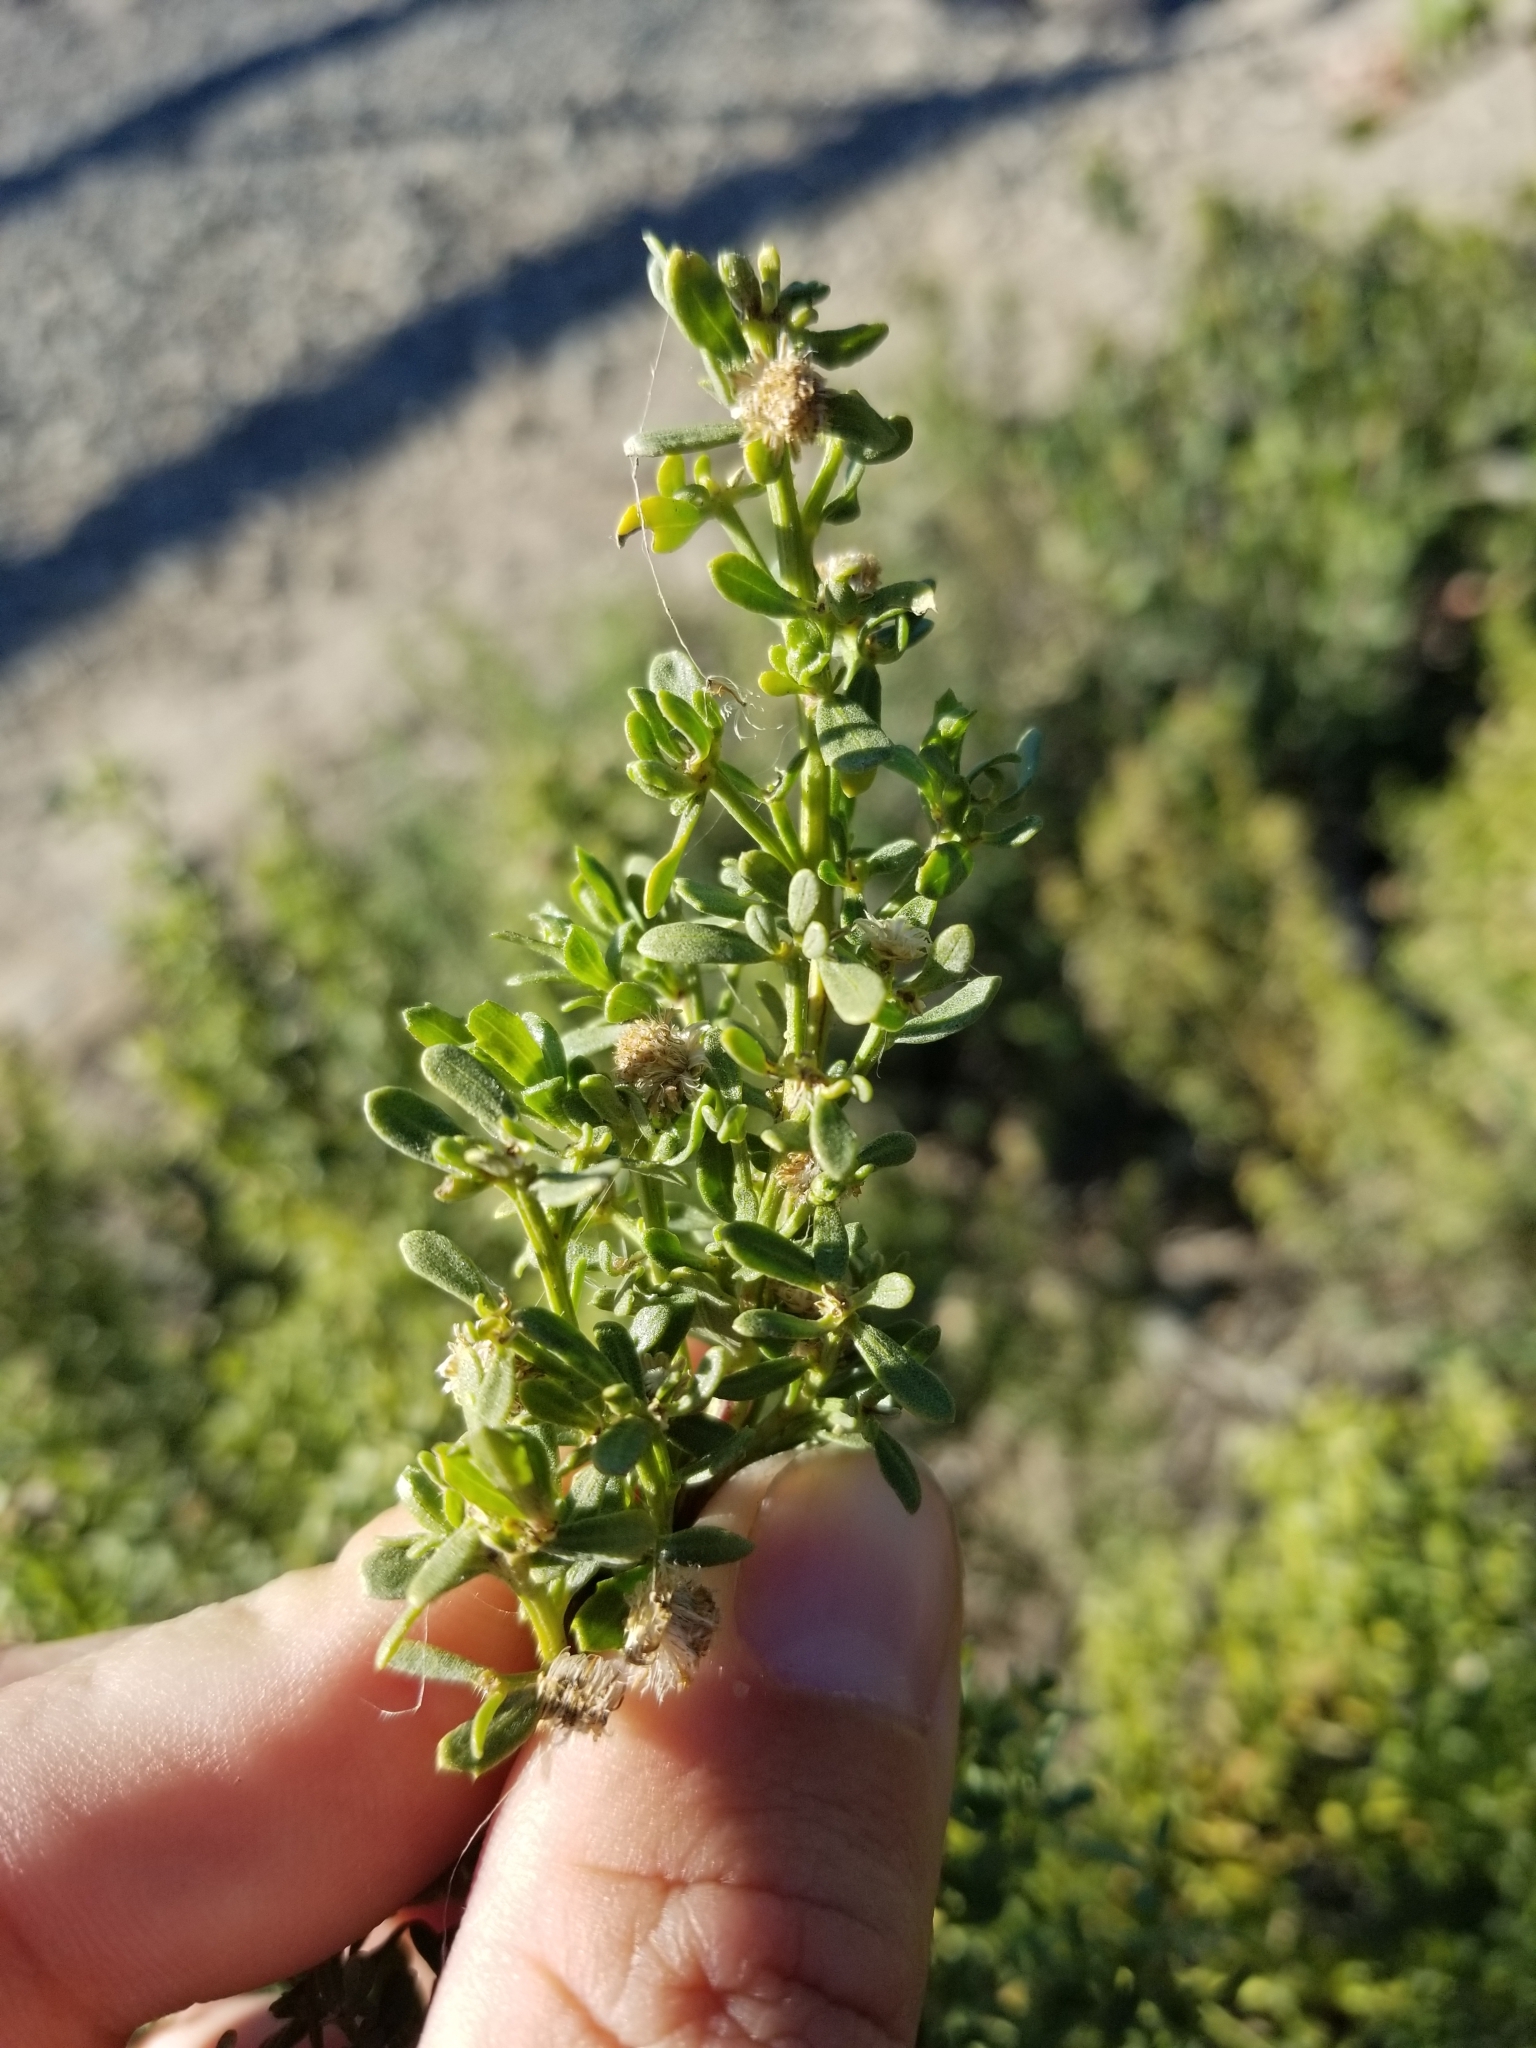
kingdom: Plantae
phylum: Tracheophyta
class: Magnoliopsida
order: Asterales
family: Asteraceae
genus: Baccharis
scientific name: Baccharis pilularis
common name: Coyotebrush
